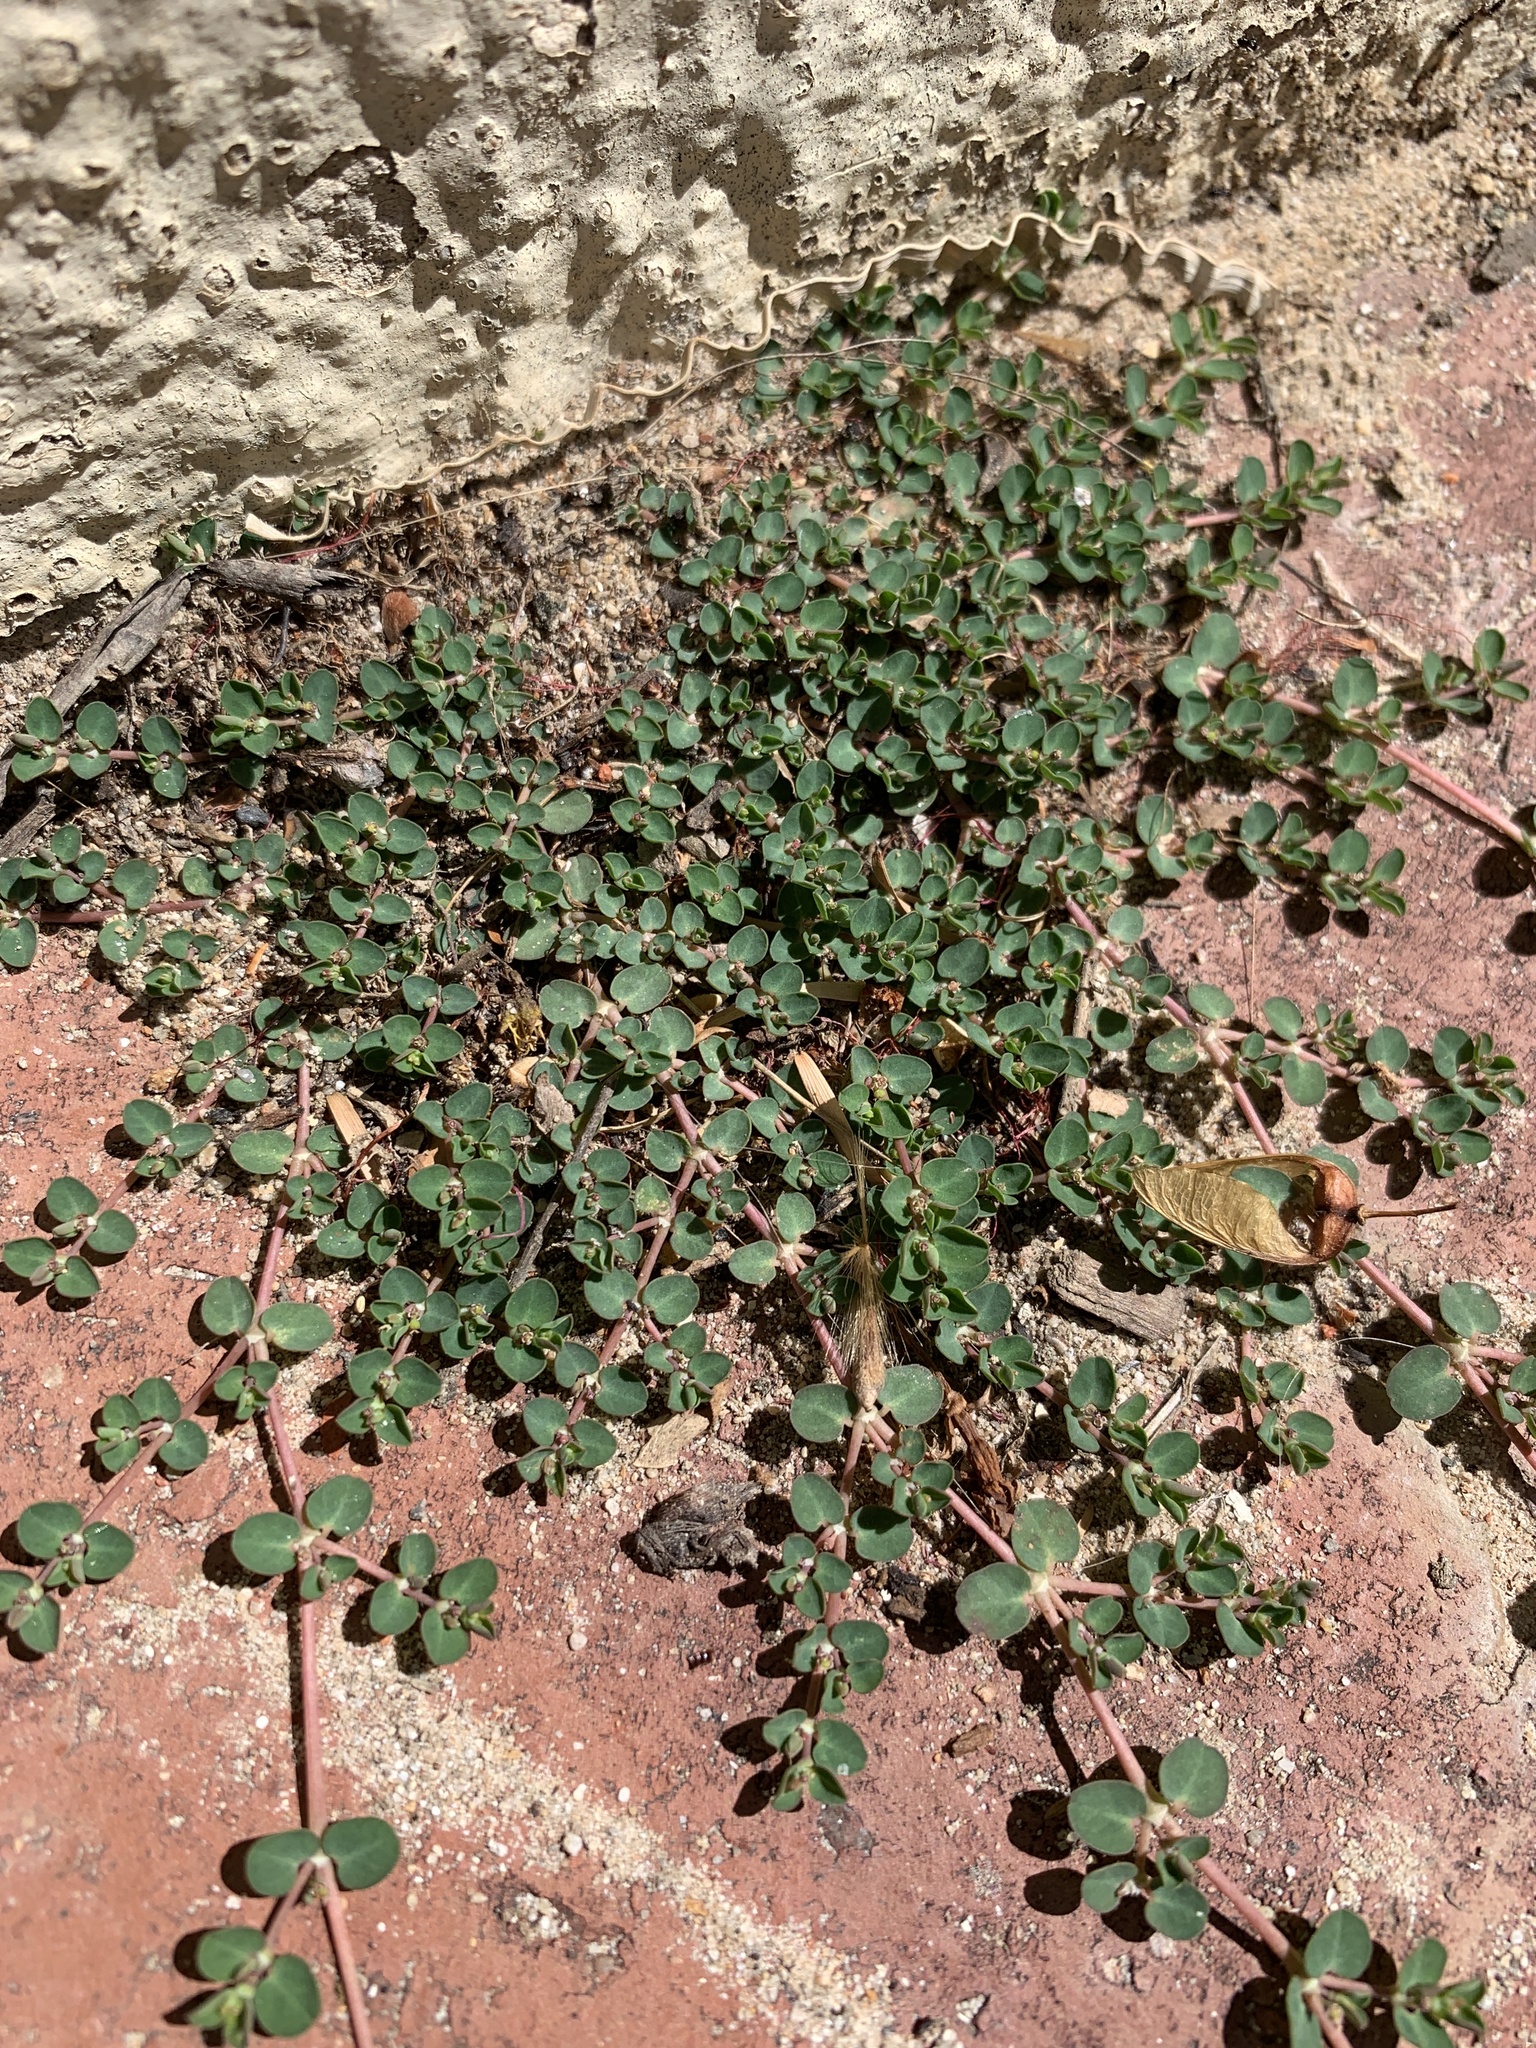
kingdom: Plantae
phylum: Tracheophyta
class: Magnoliopsida
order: Malpighiales
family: Euphorbiaceae
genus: Euphorbia
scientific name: Euphorbia serpens
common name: Matted sandmat
